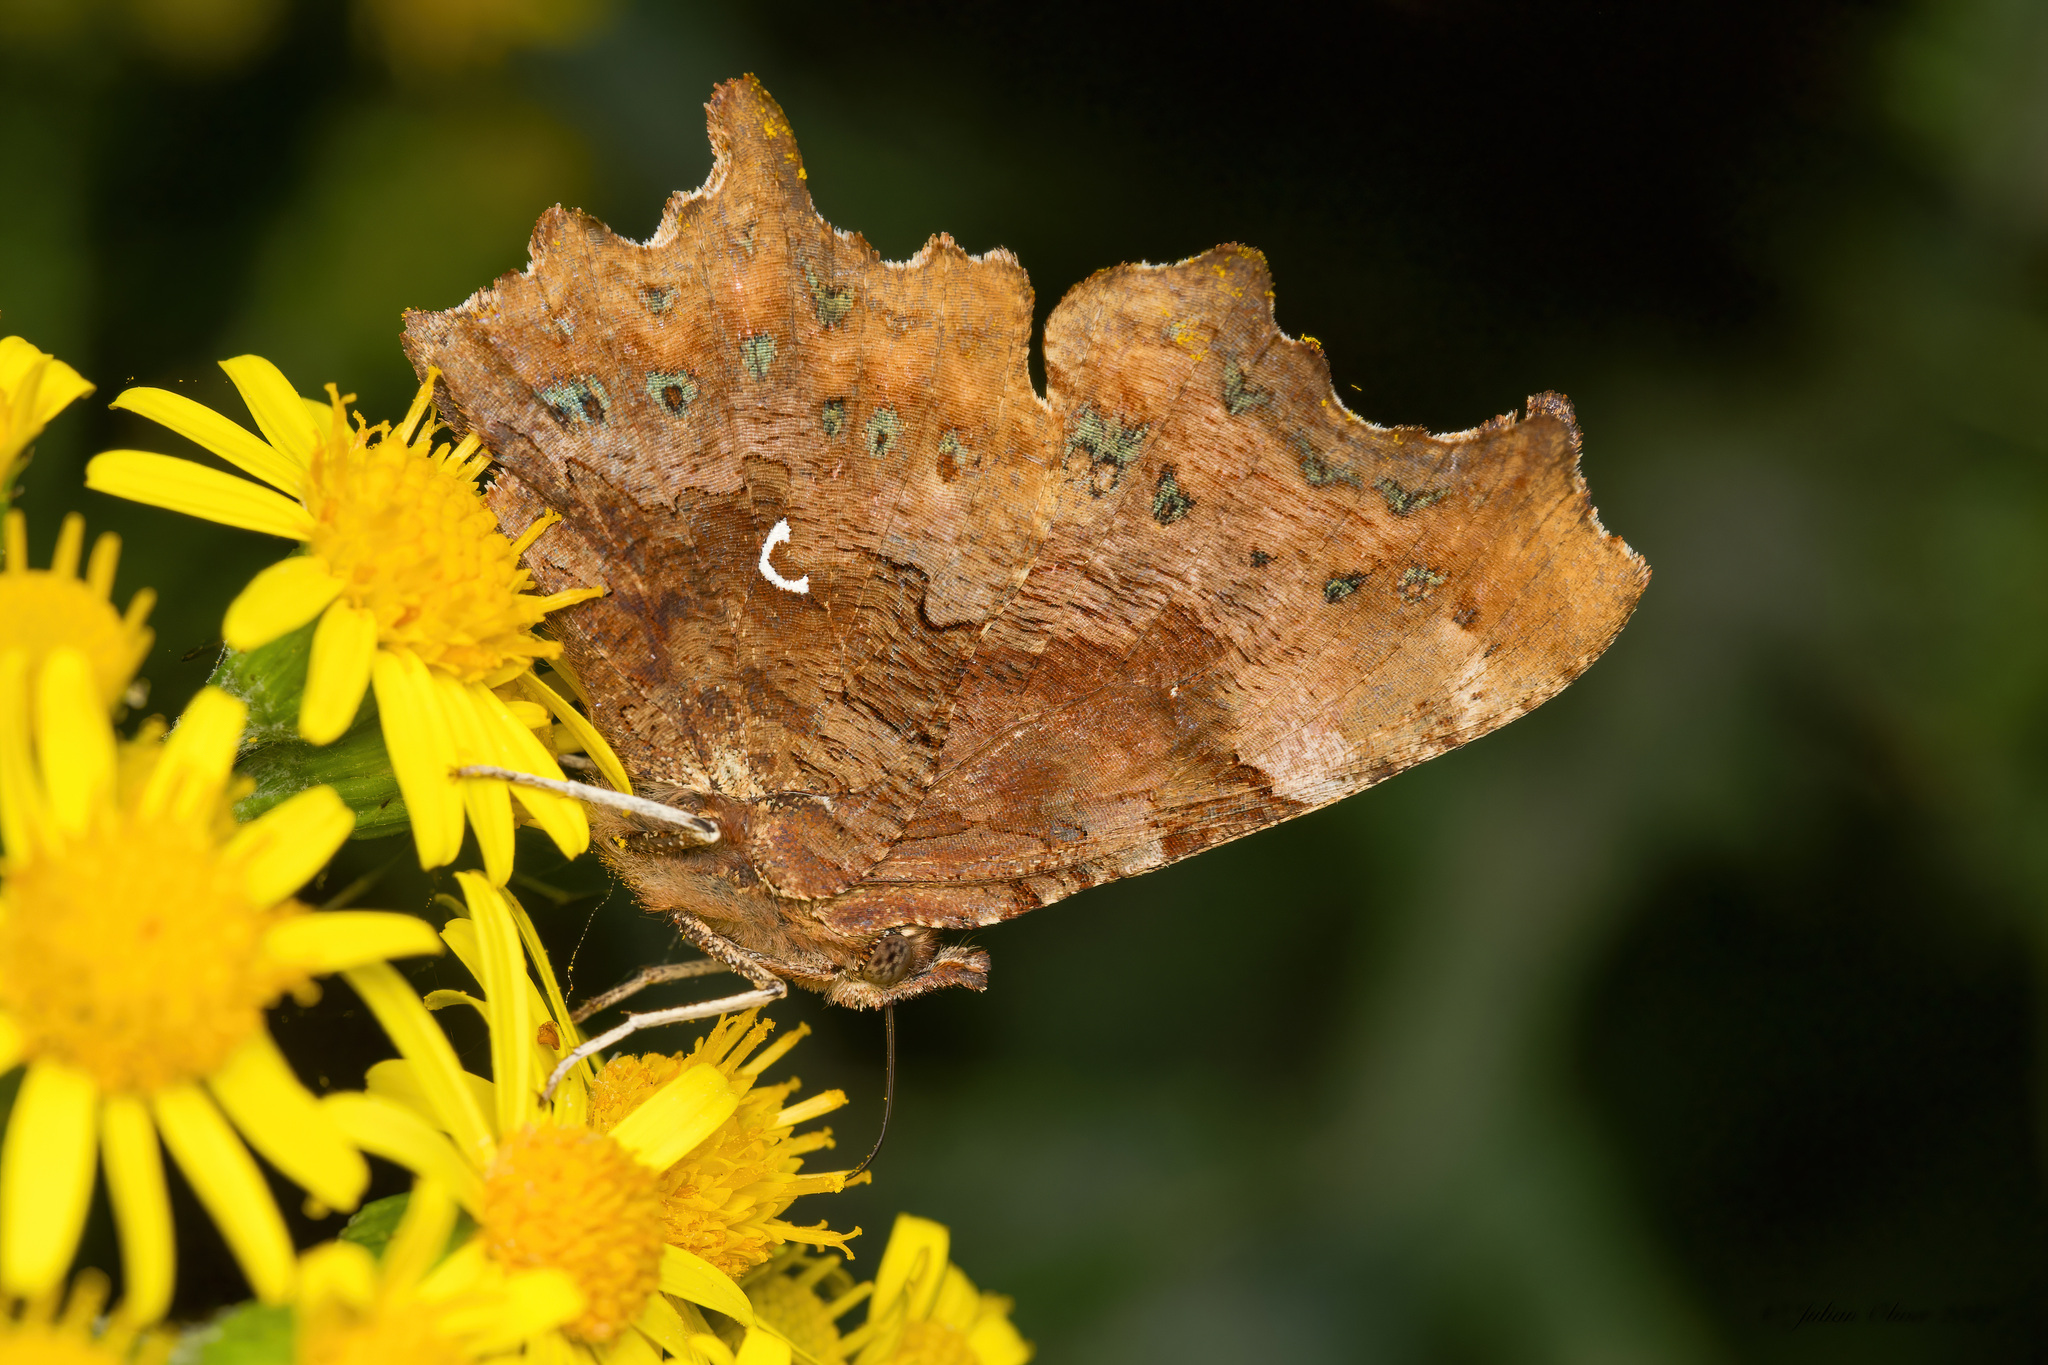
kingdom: Animalia
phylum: Arthropoda
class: Insecta
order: Lepidoptera
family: Nymphalidae
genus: Polygonia
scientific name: Polygonia c-album
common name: Comma
